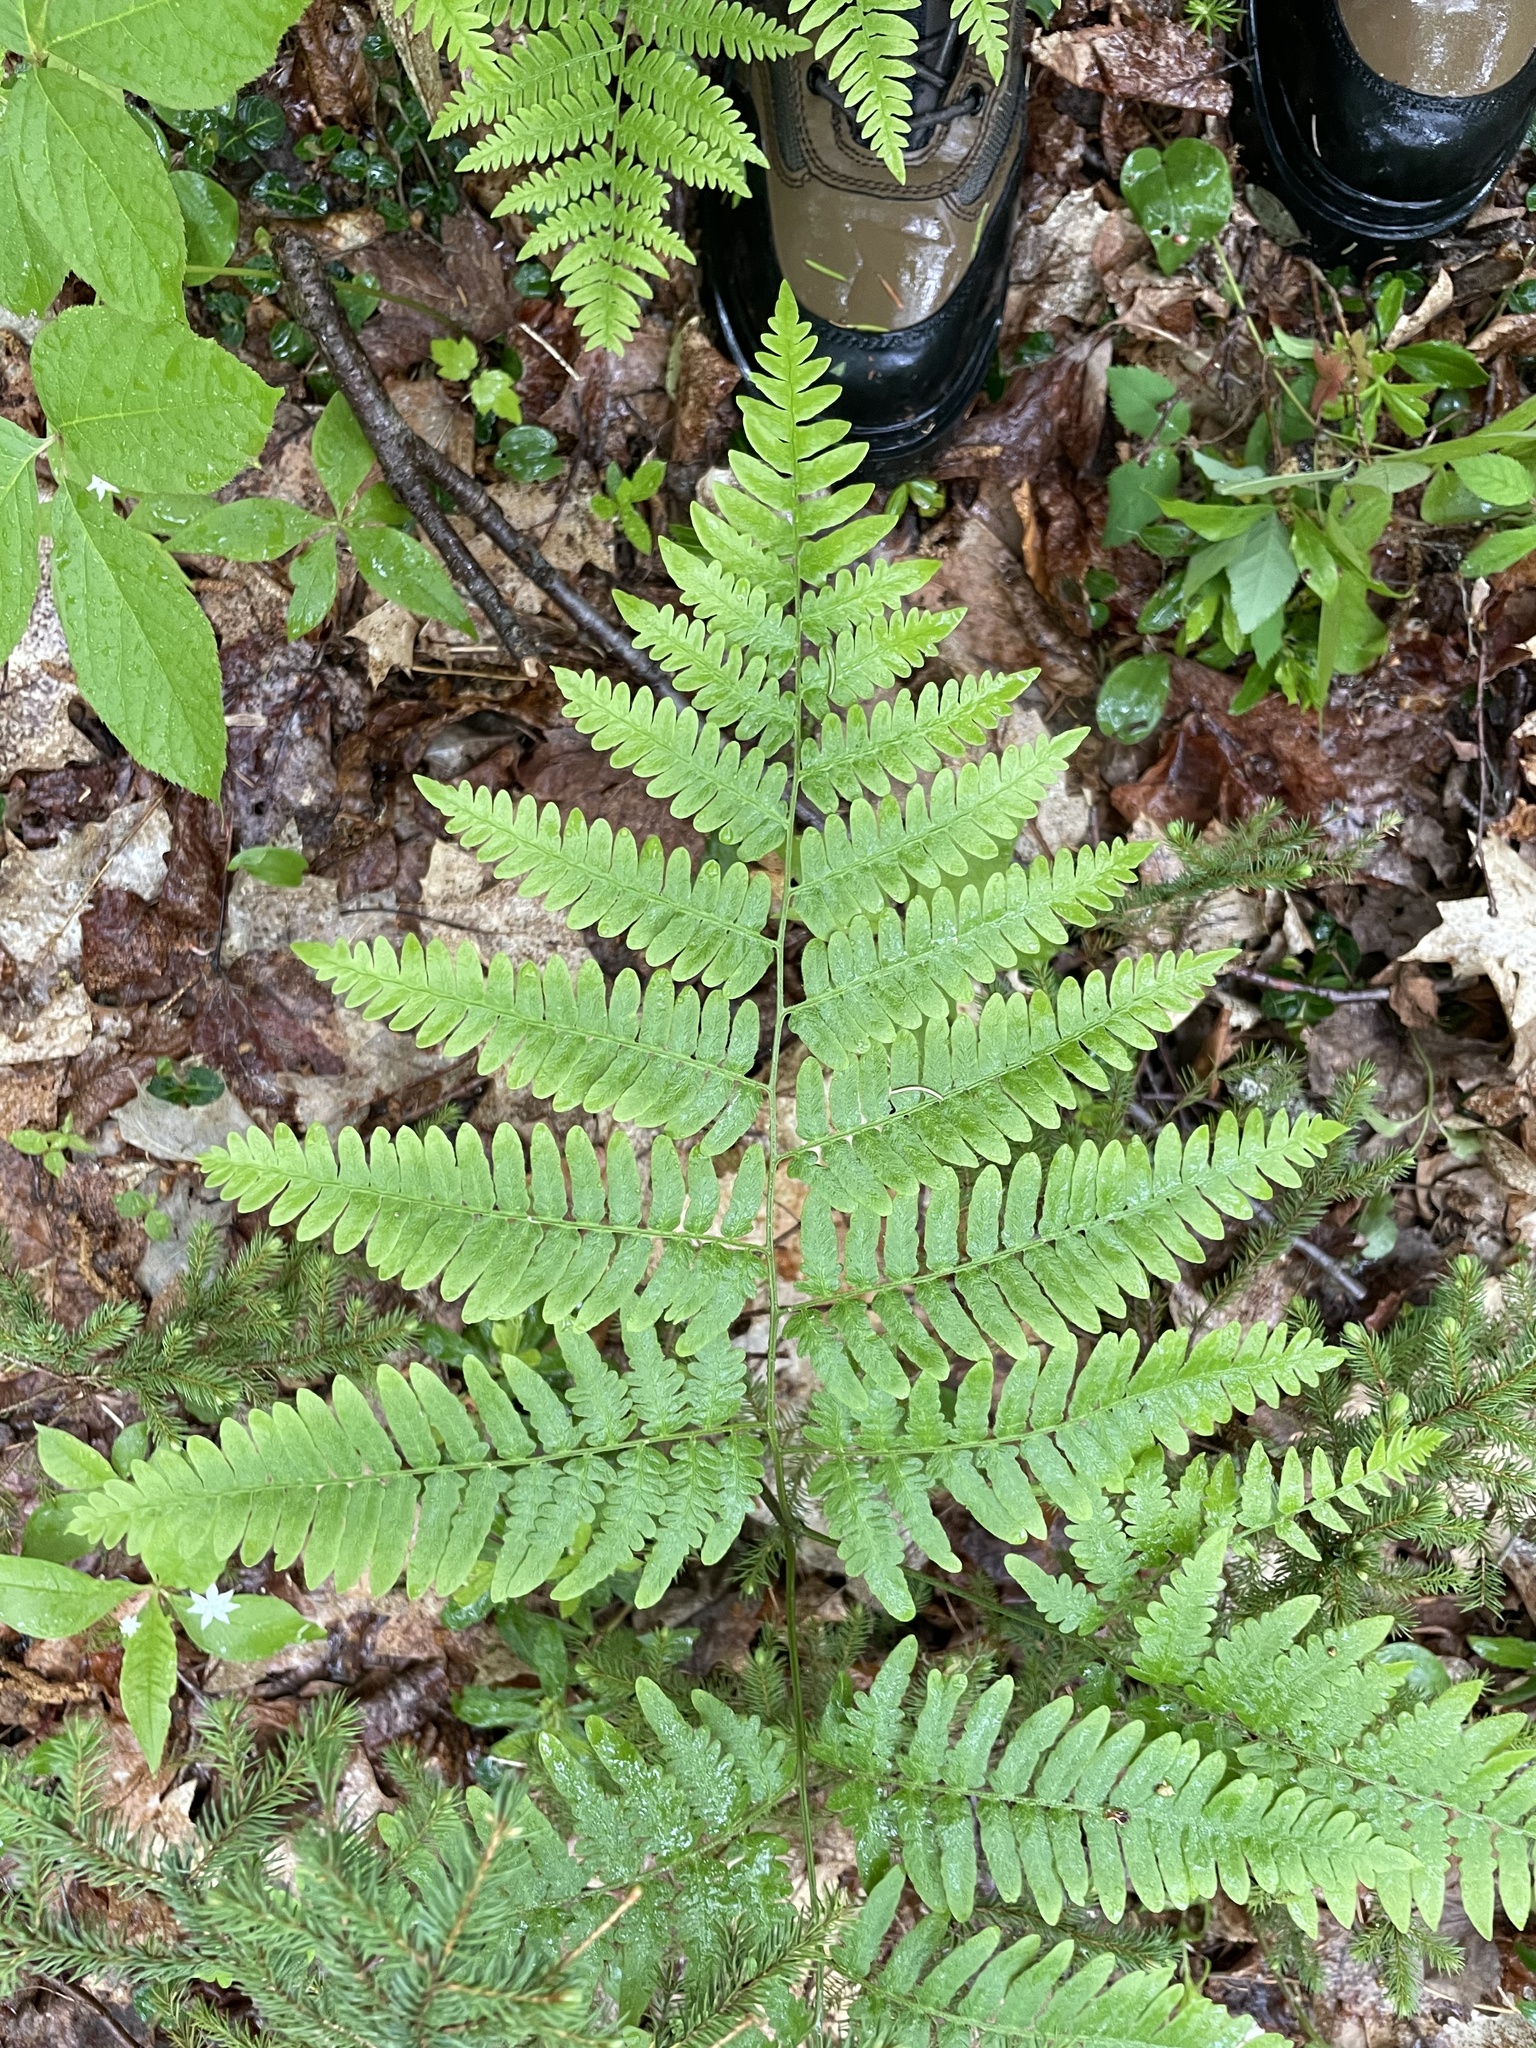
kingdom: Plantae
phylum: Tracheophyta
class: Polypodiopsida
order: Polypodiales
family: Dennstaedtiaceae
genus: Pteridium
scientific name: Pteridium aquilinum
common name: Bracken
